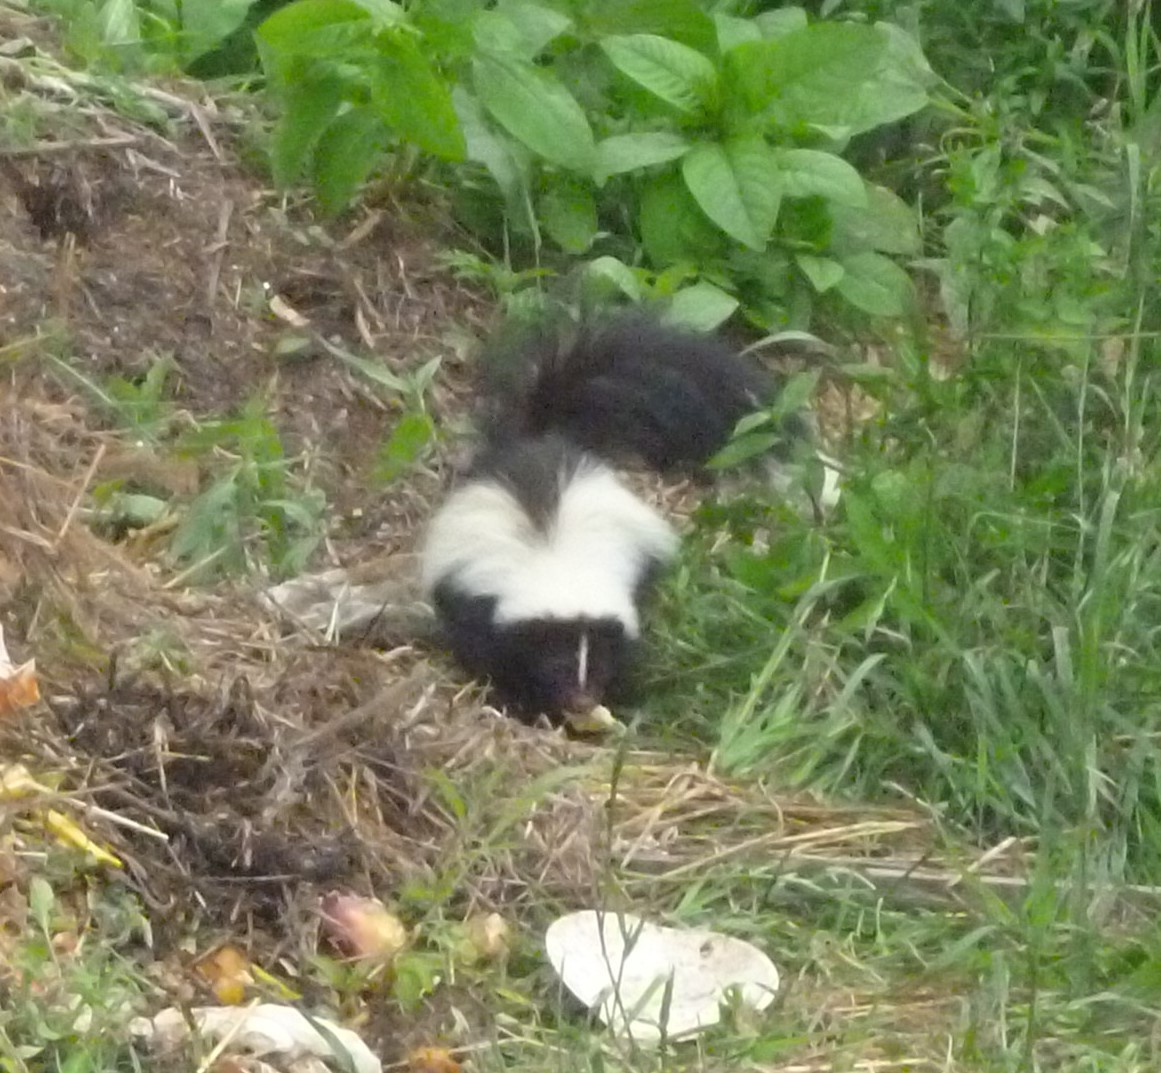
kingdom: Animalia
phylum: Chordata
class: Mammalia
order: Carnivora
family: Mephitidae
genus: Mephitis
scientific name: Mephitis mephitis
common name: Striped skunk
